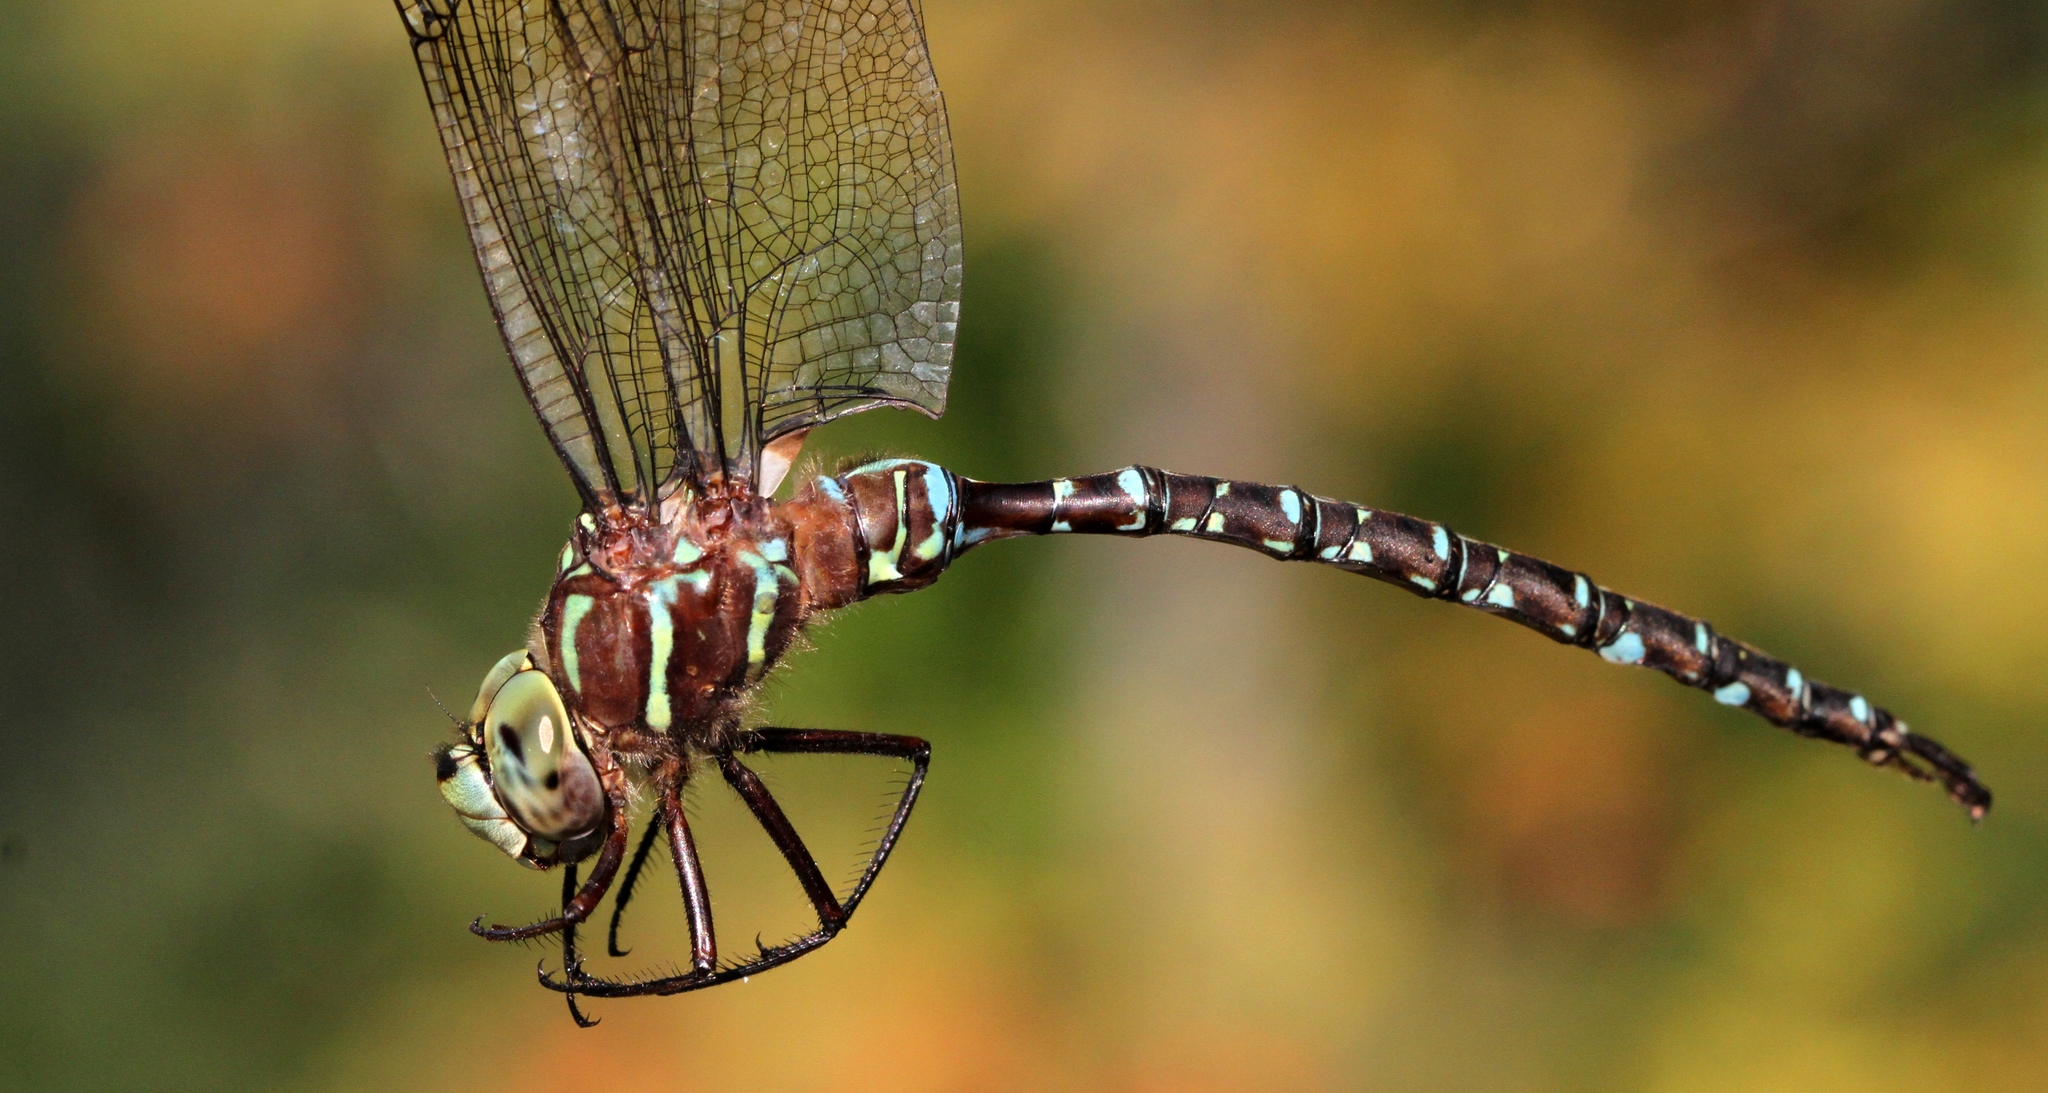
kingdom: Animalia
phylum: Arthropoda
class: Insecta
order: Odonata
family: Aeshnidae
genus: Aeshna
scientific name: Aeshna umbrosa
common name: Shadow darner
